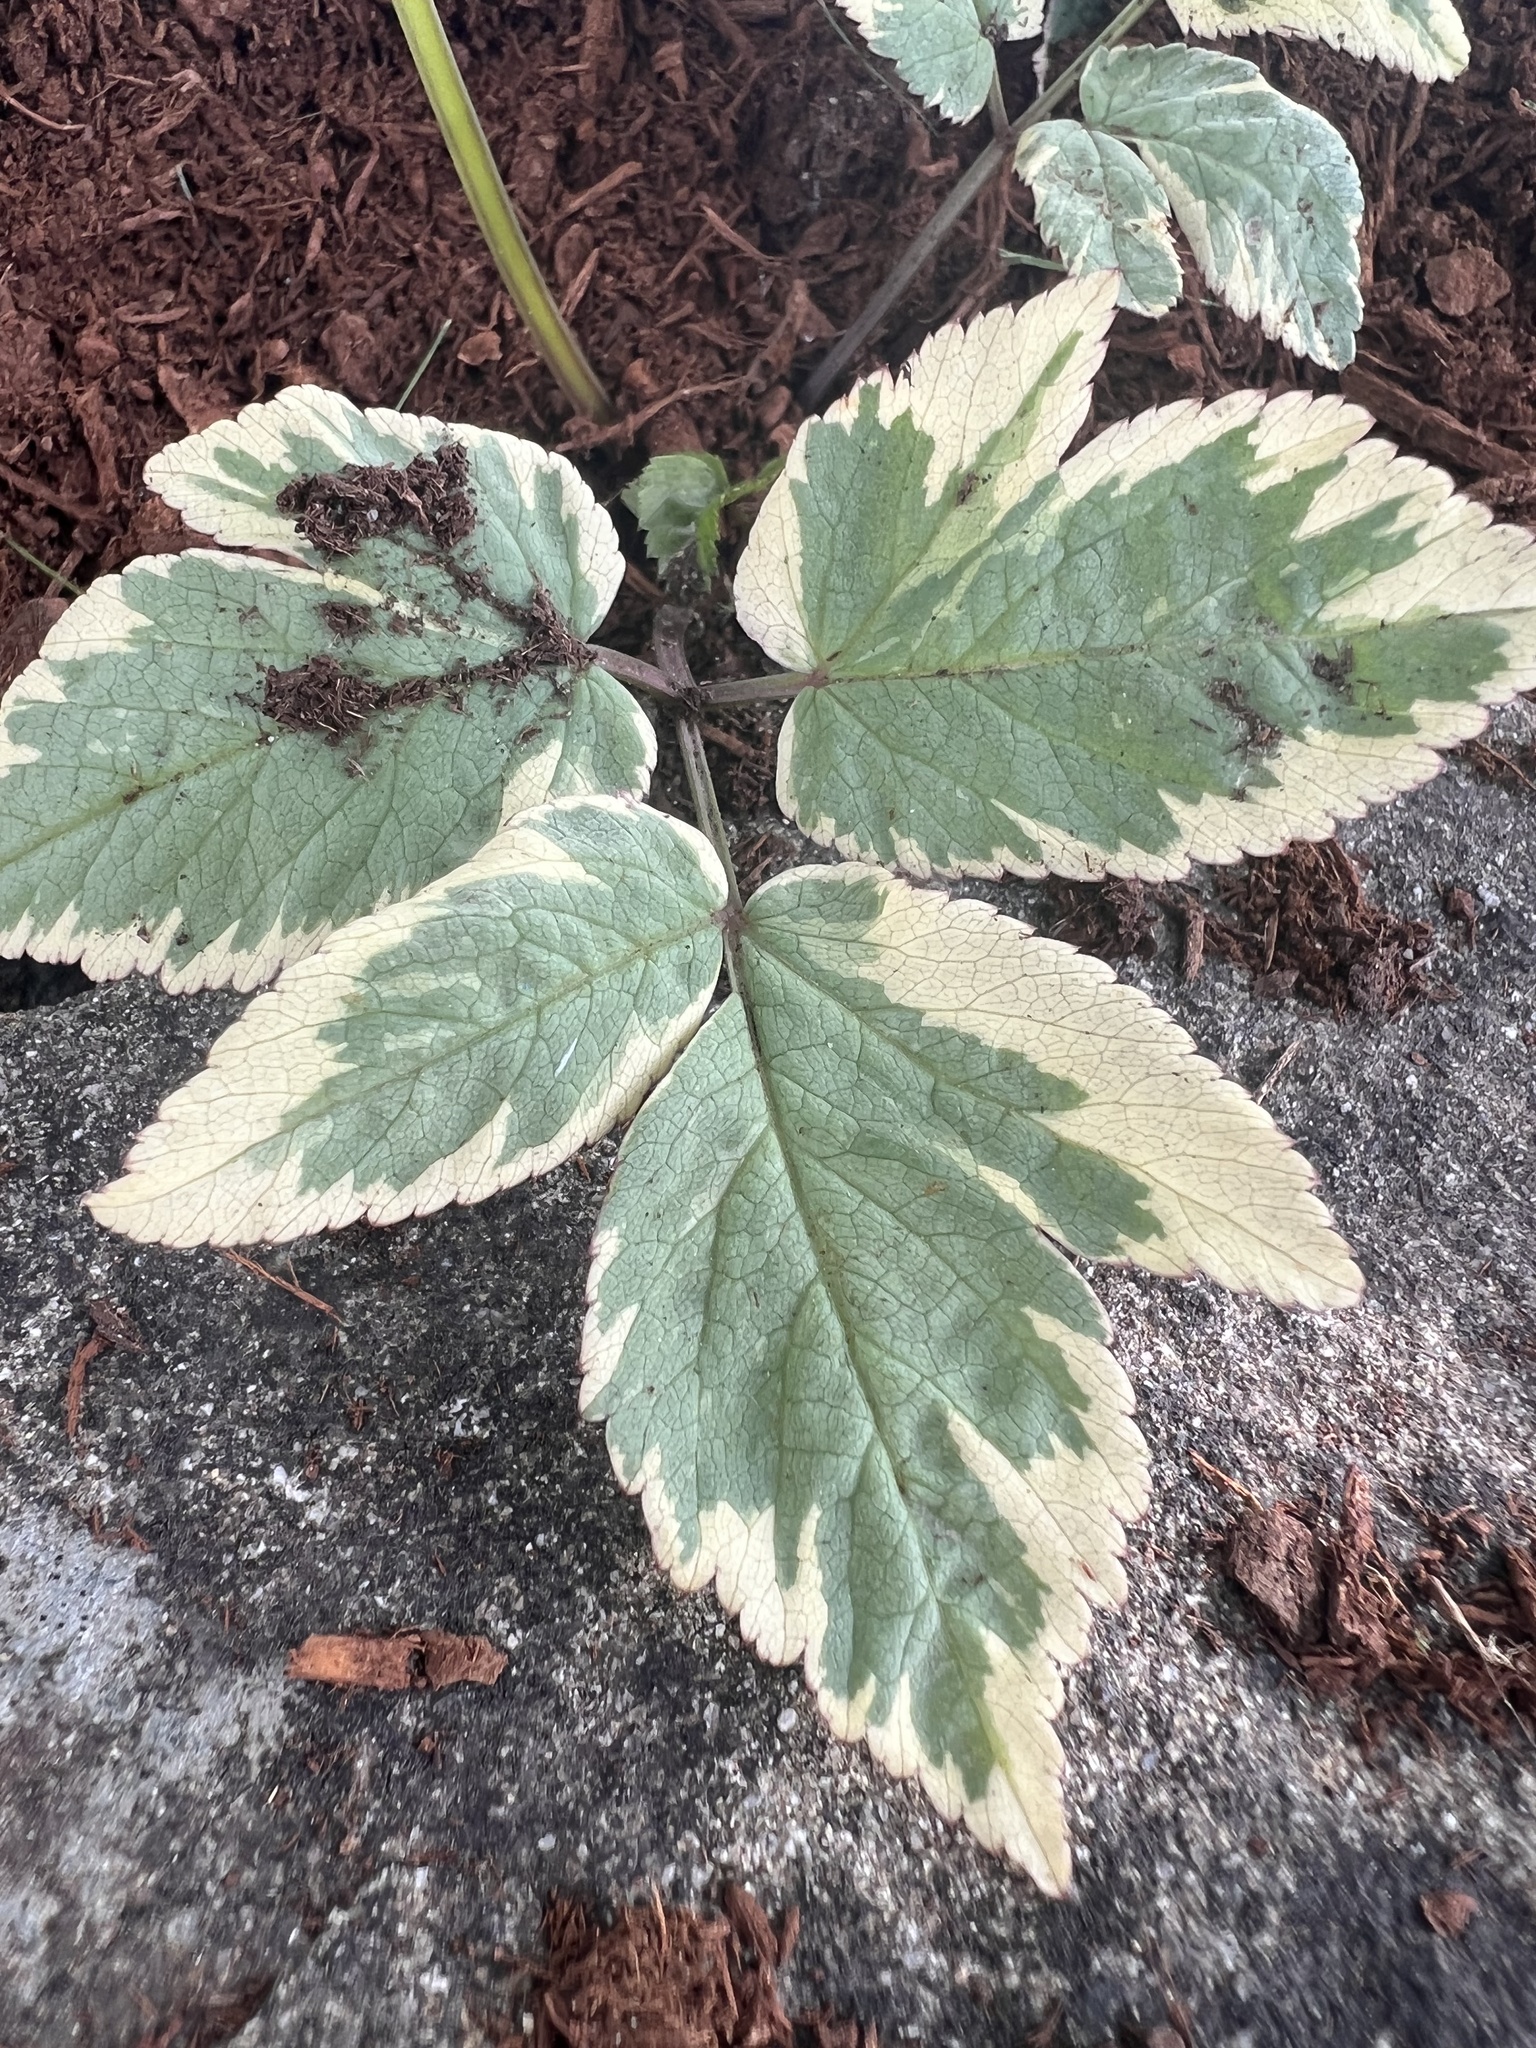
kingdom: Plantae
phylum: Tracheophyta
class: Magnoliopsida
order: Apiales
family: Apiaceae
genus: Aegopodium
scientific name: Aegopodium podagraria
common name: Ground-elder
